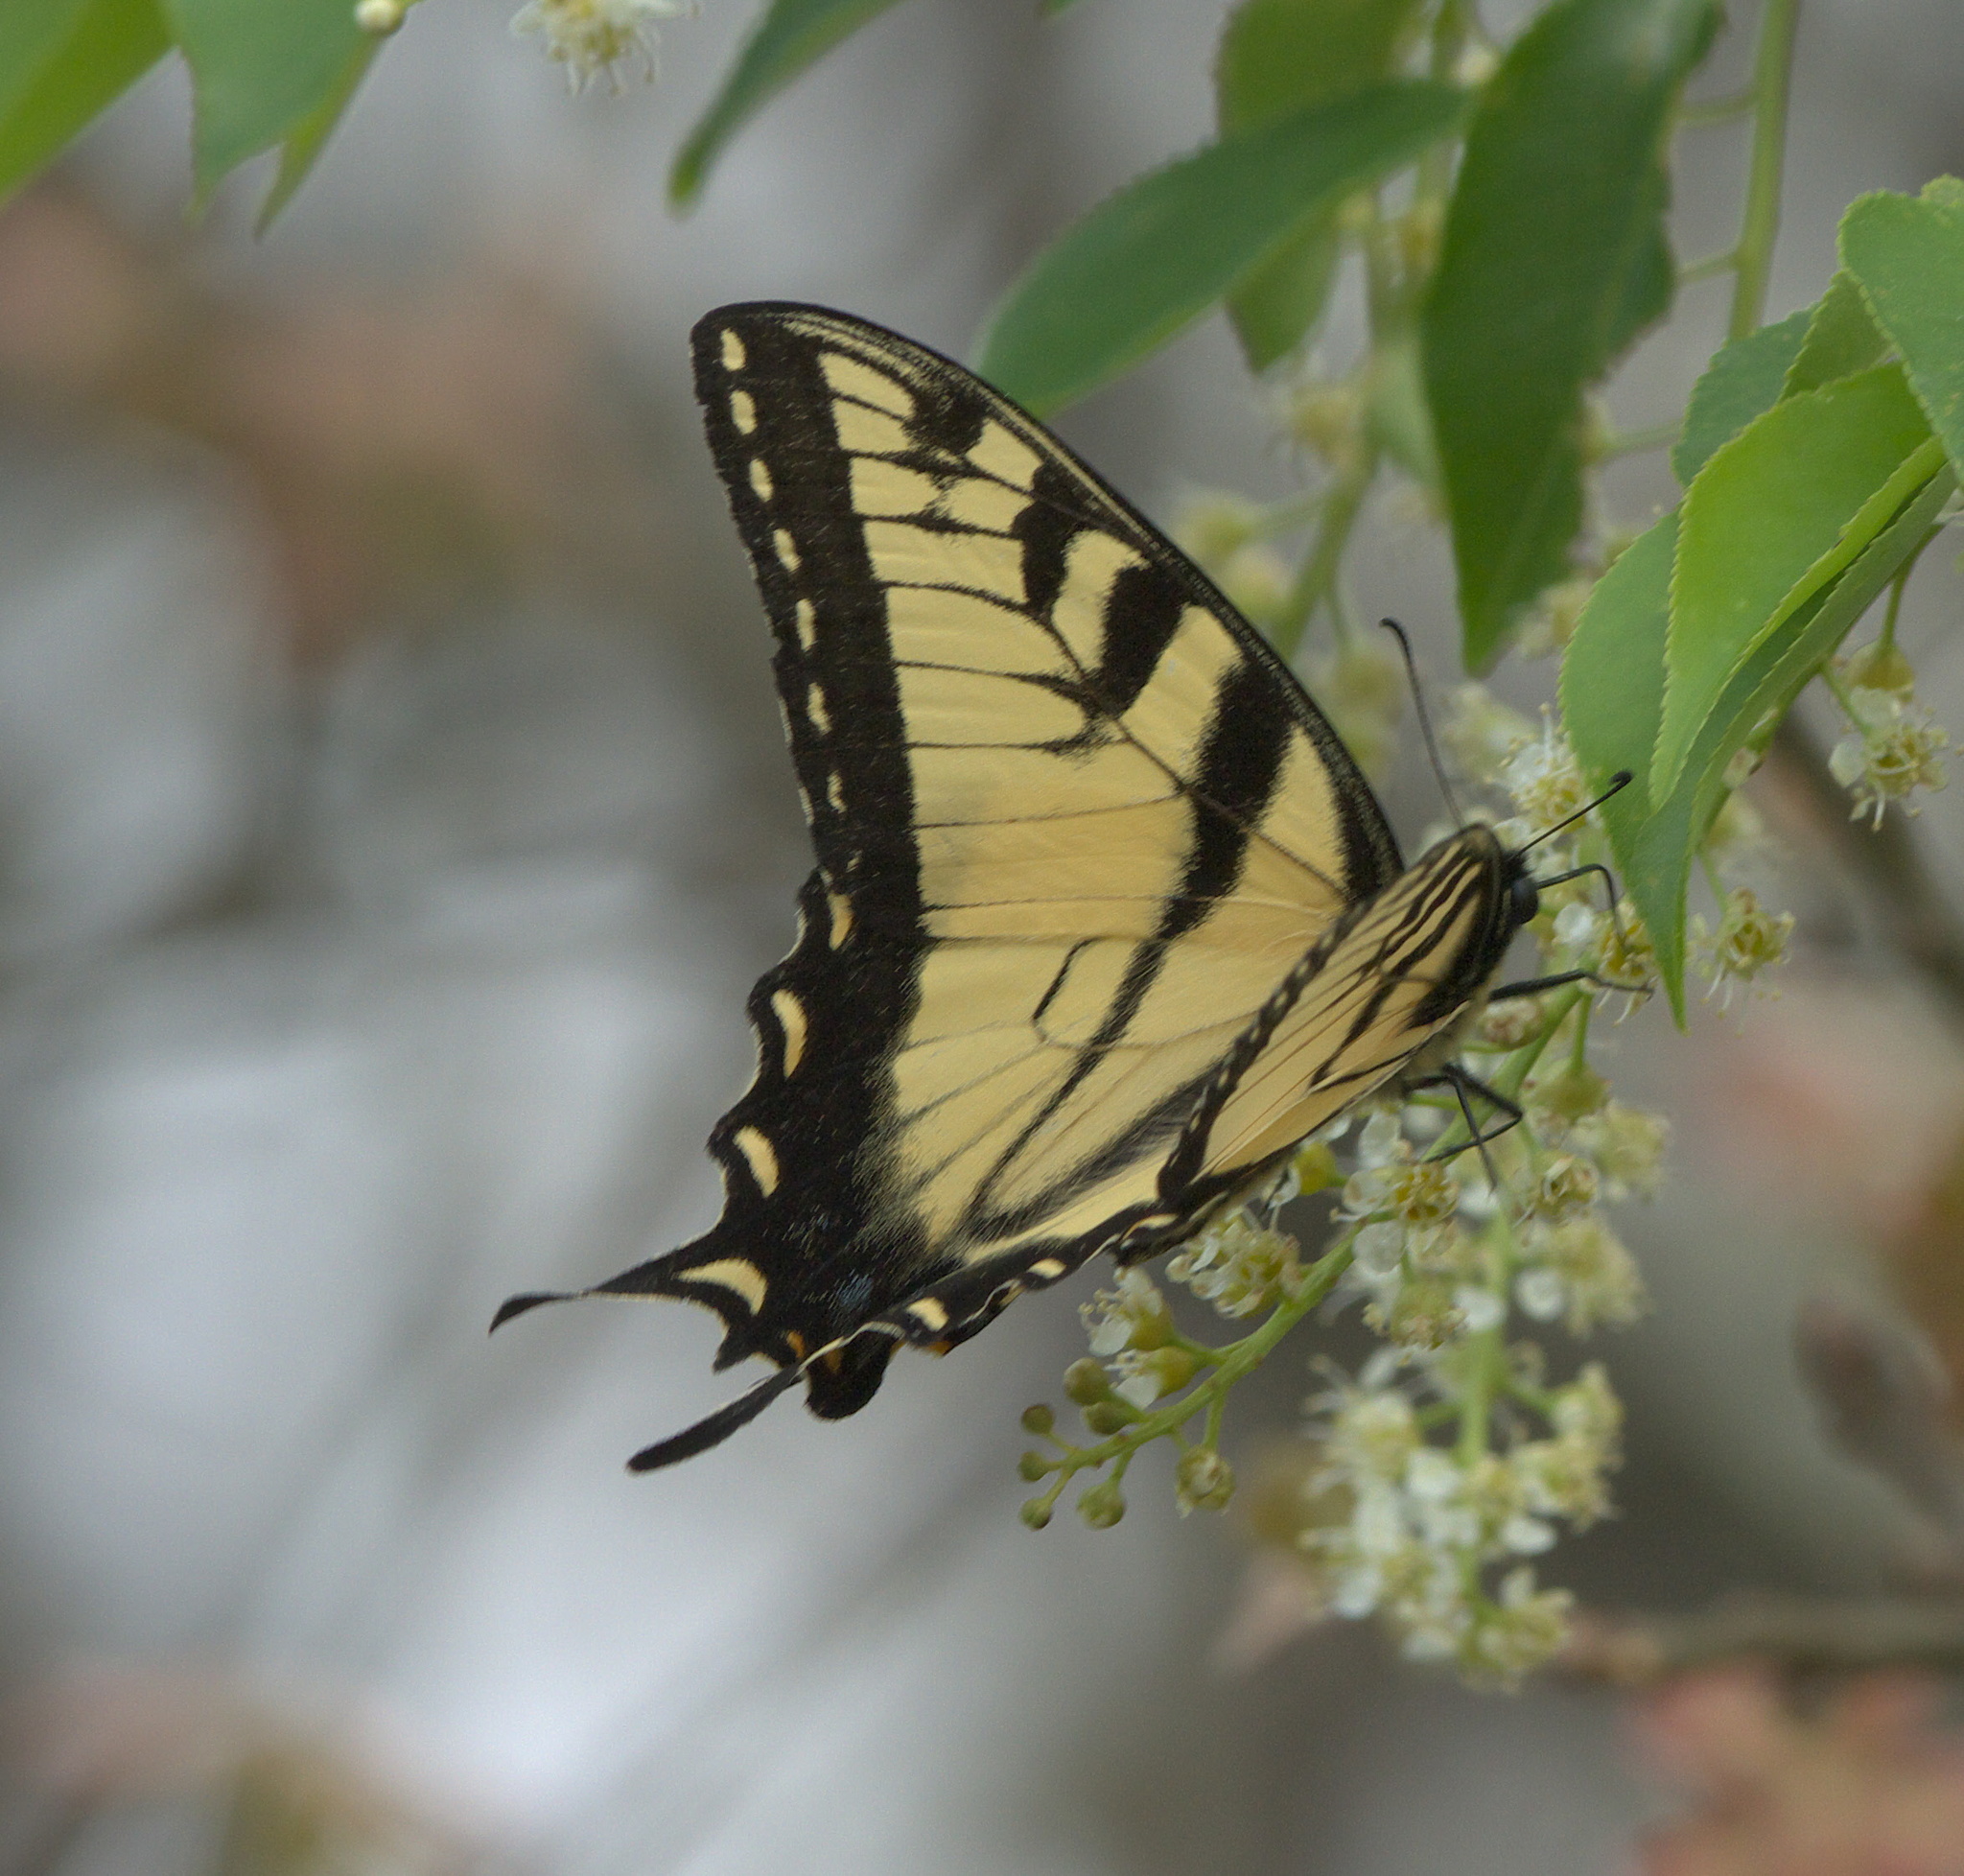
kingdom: Animalia
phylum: Arthropoda
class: Insecta
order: Lepidoptera
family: Papilionidae
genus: Papilio
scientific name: Papilio glaucus
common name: Tiger swallowtail
